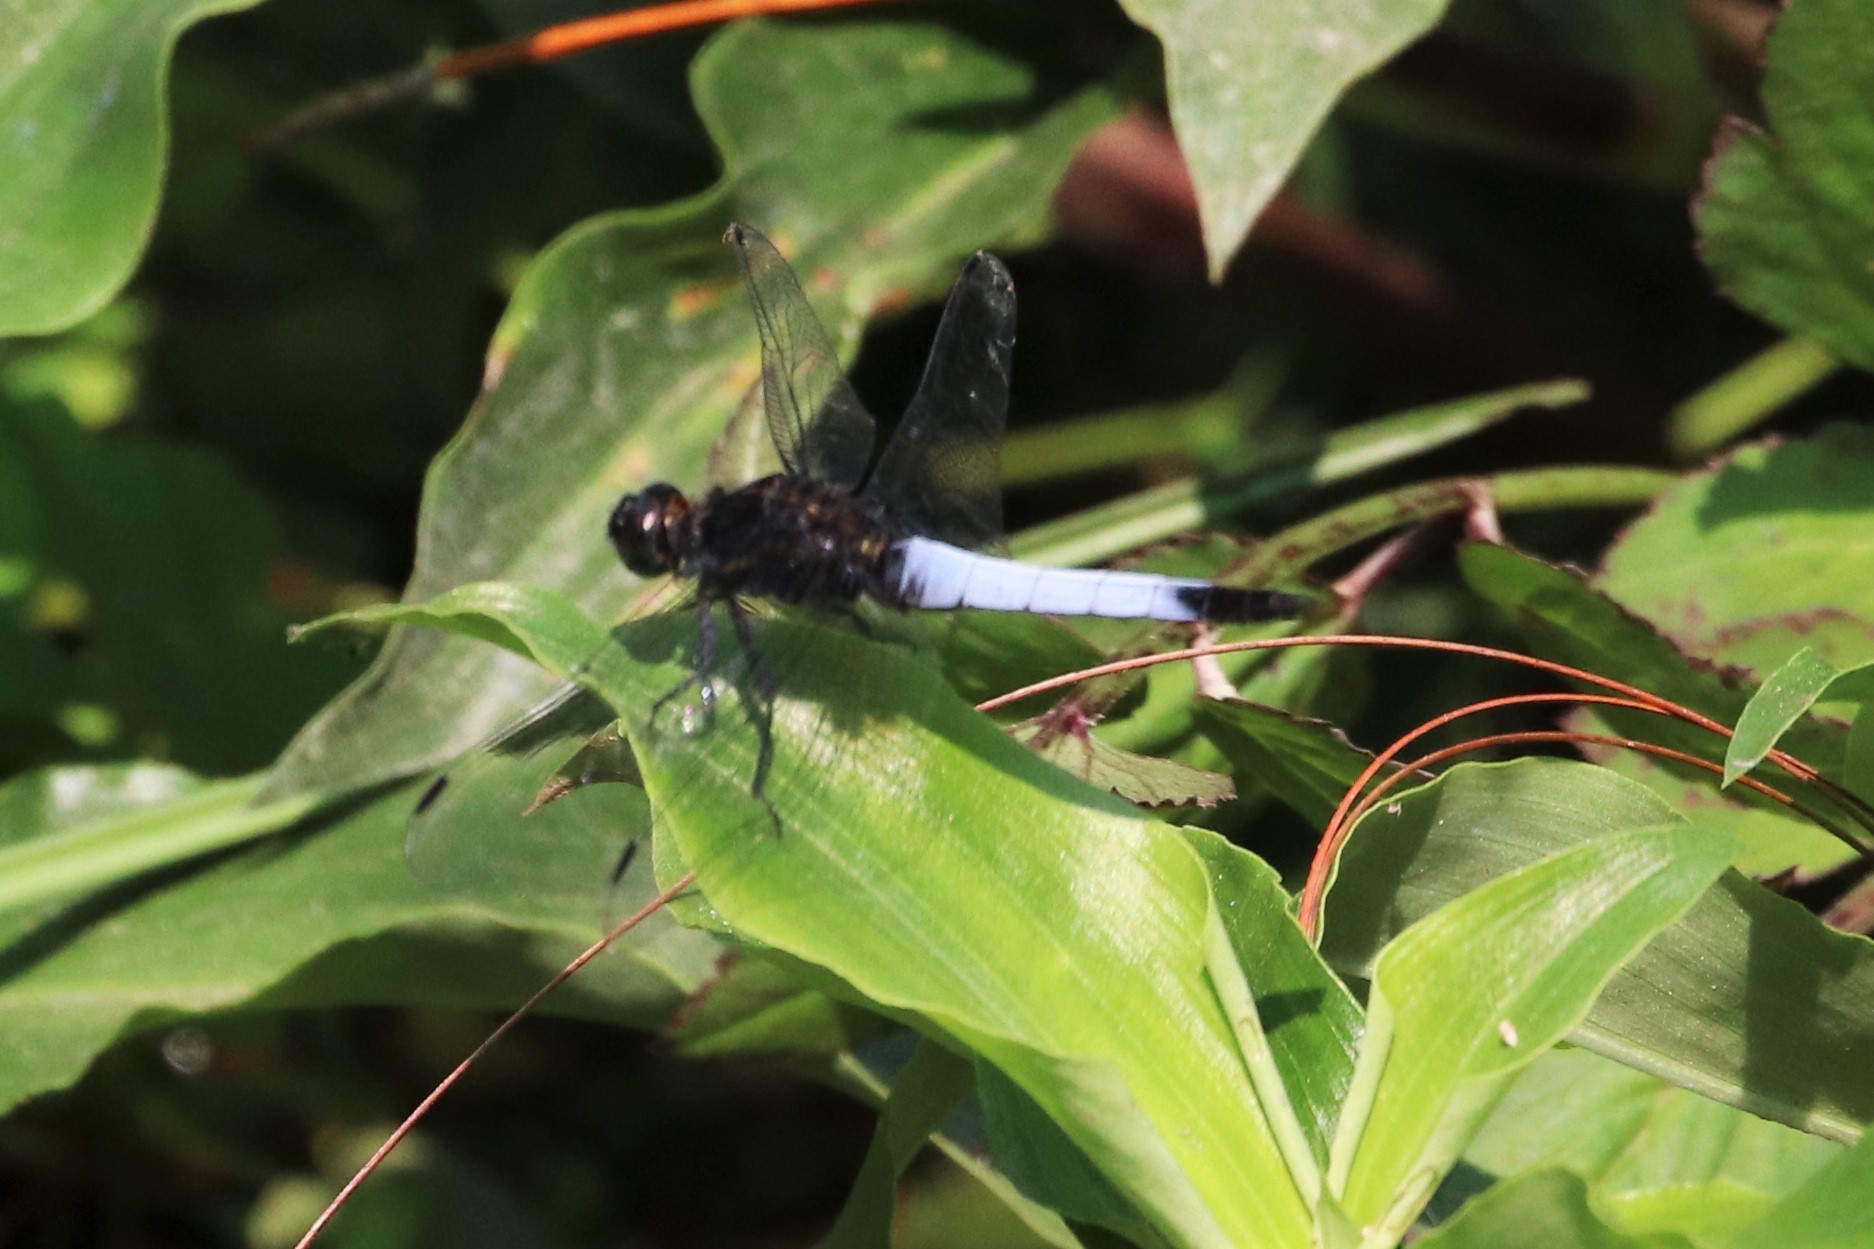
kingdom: Animalia
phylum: Arthropoda
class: Insecta
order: Odonata
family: Libellulidae
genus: Orthetrum
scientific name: Orthetrum triangulare
